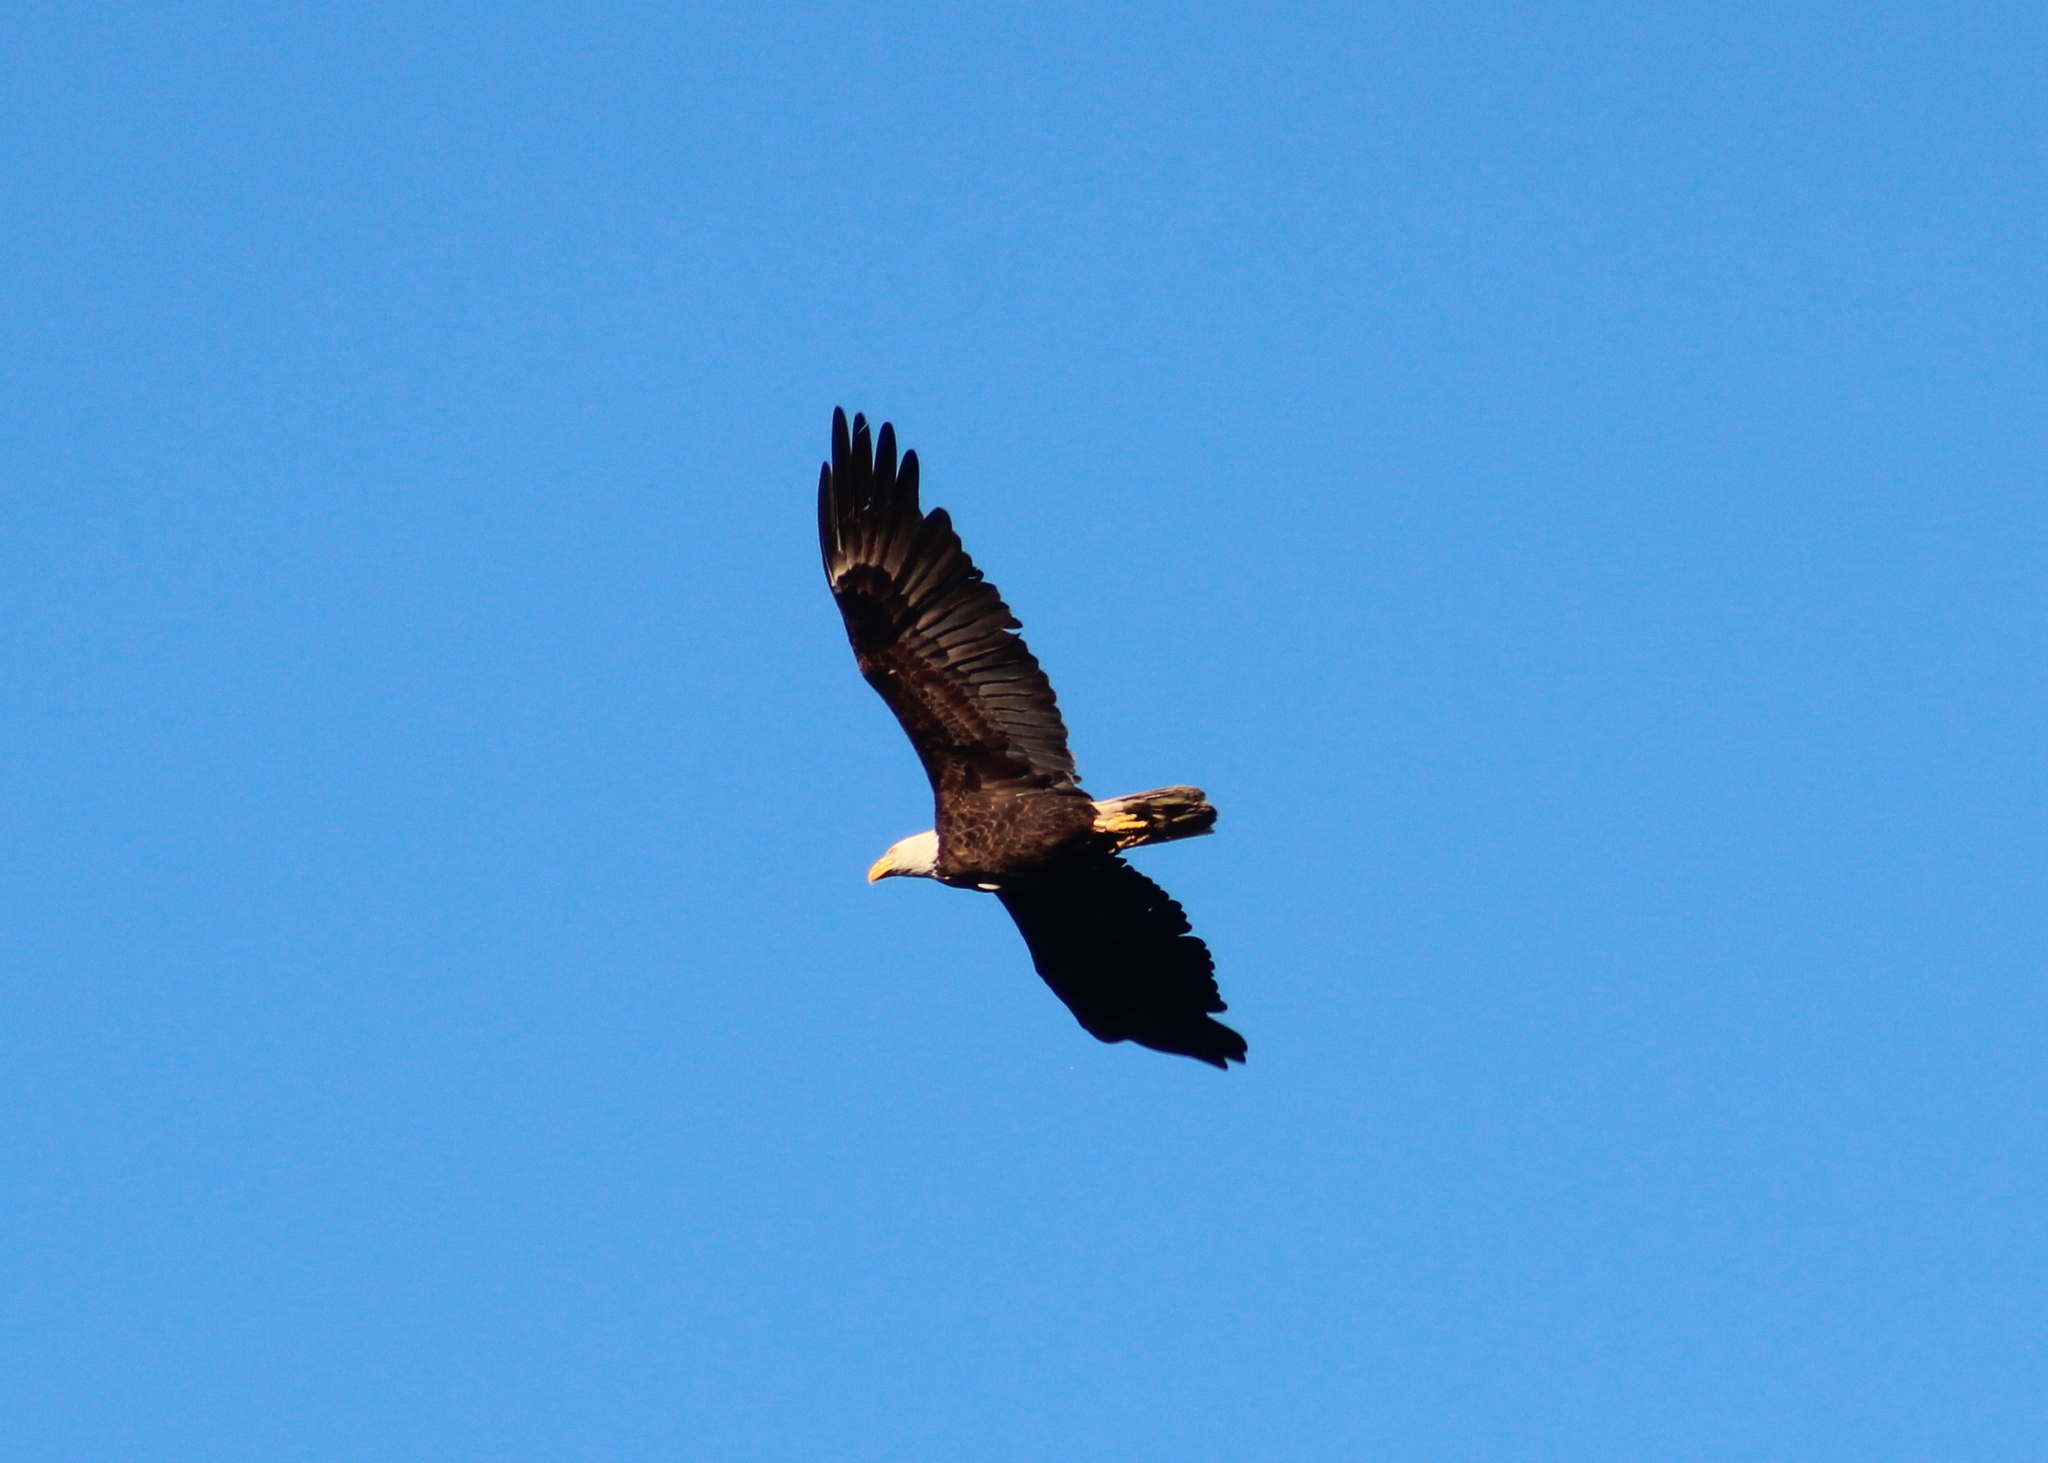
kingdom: Animalia
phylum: Chordata
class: Aves
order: Accipitriformes
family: Accipitridae
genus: Haliaeetus
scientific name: Haliaeetus leucocephalus
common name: Bald eagle
